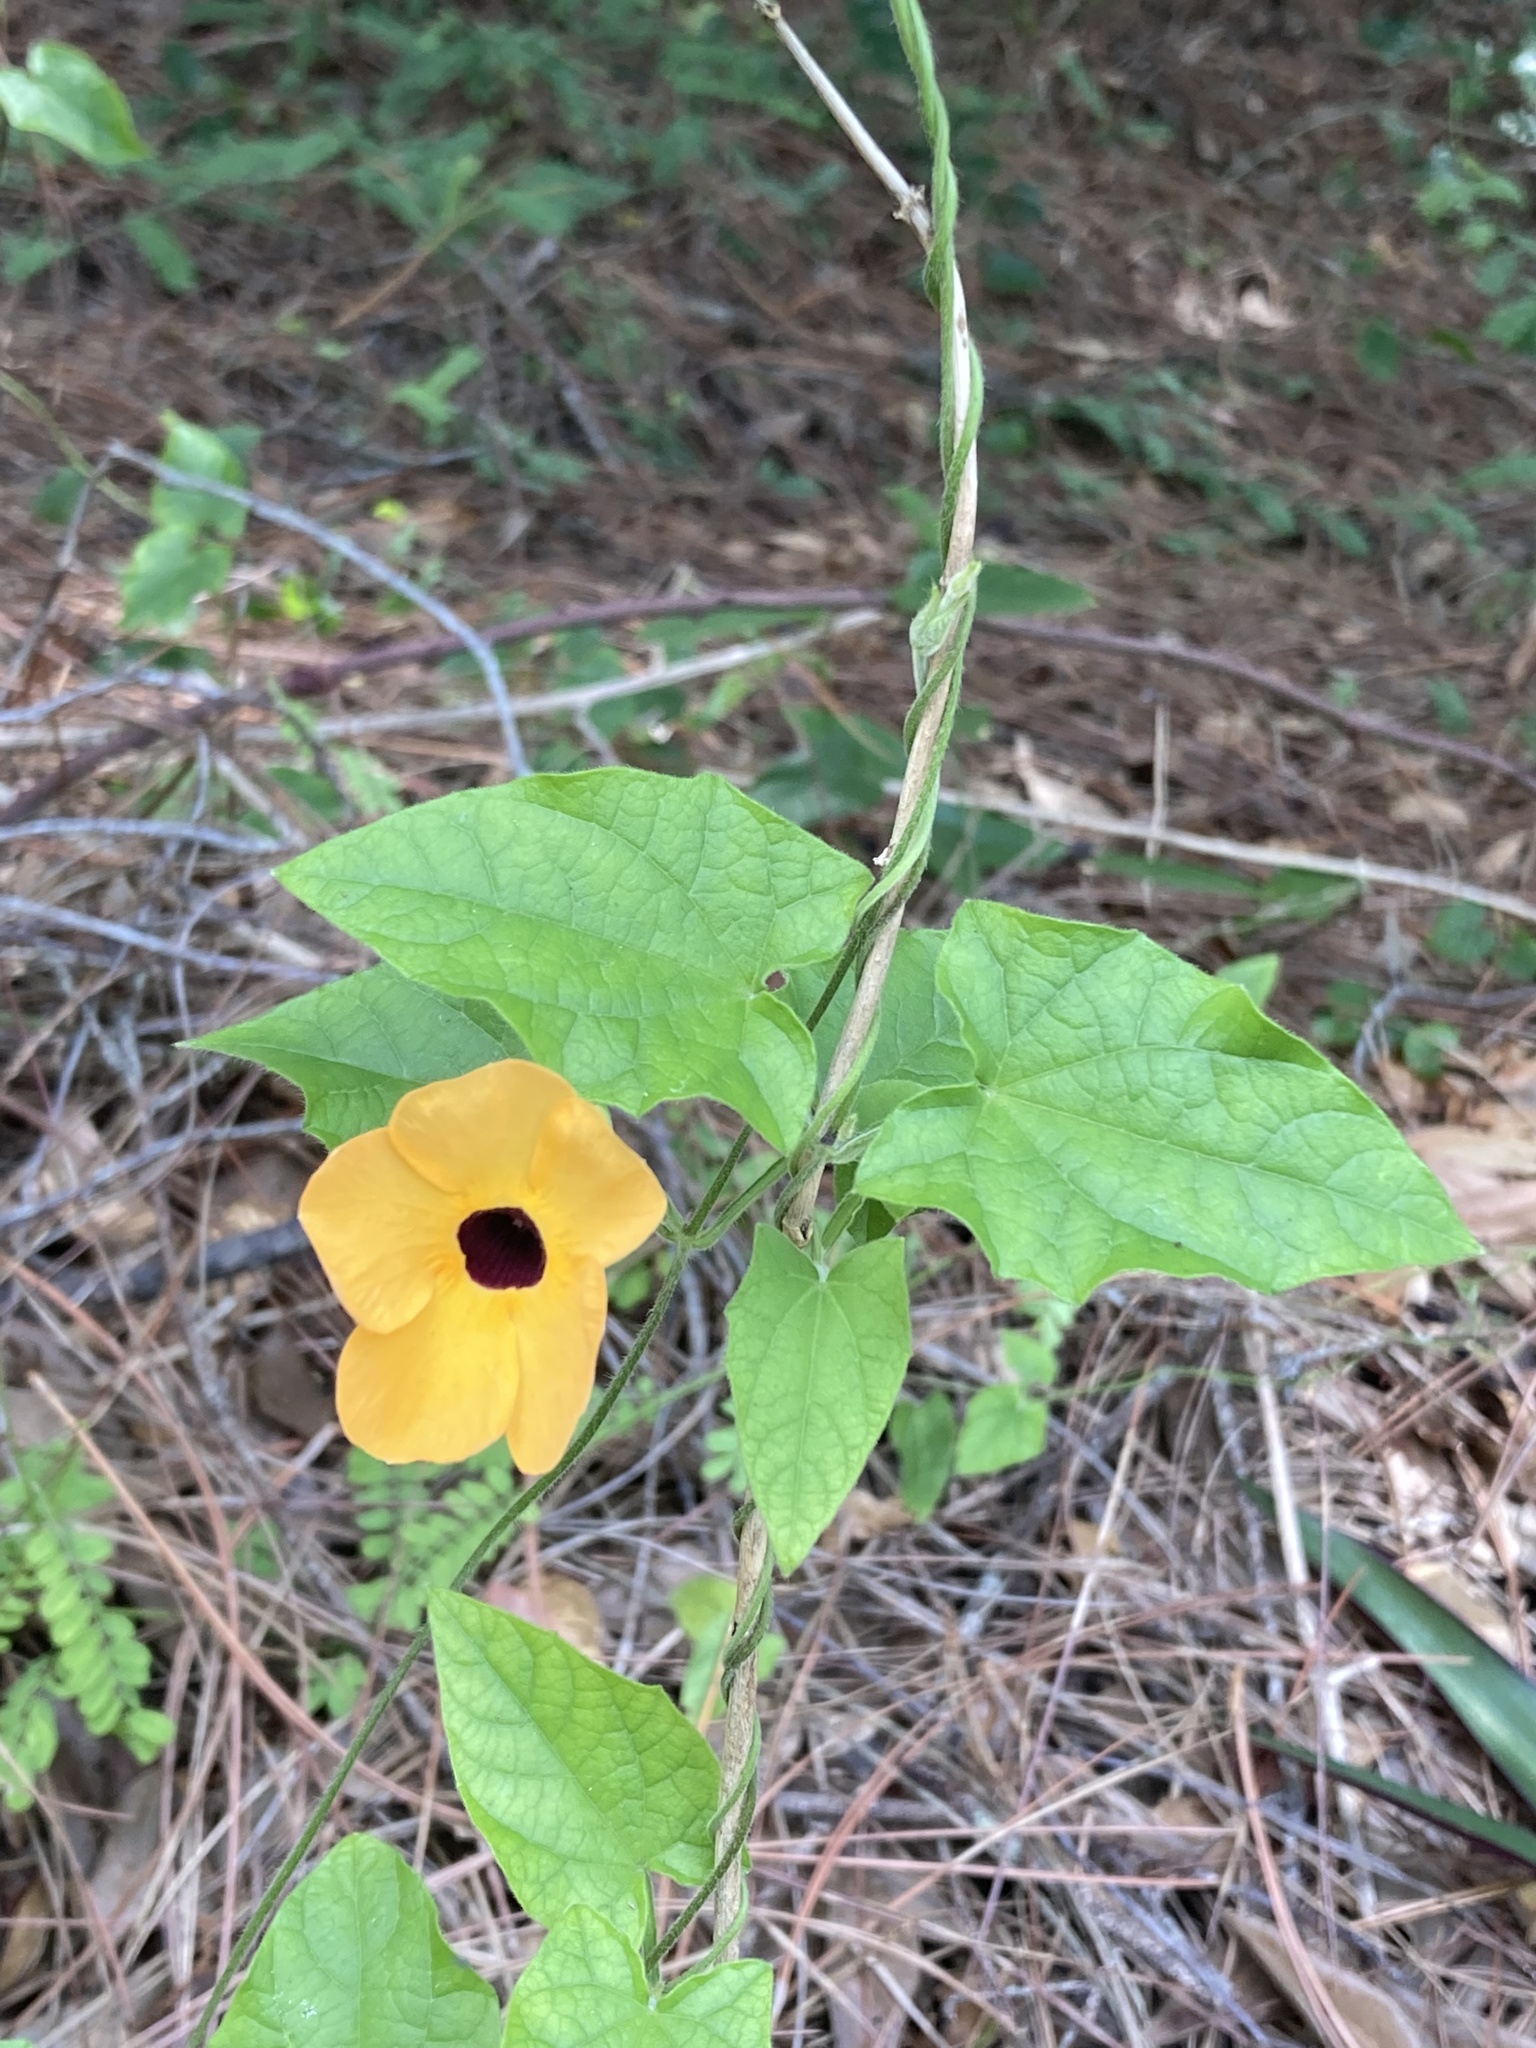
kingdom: Plantae
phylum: Tracheophyta
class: Magnoliopsida
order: Lamiales
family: Acanthaceae
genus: Thunbergia
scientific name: Thunbergia alata
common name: Blackeyed susan vine
